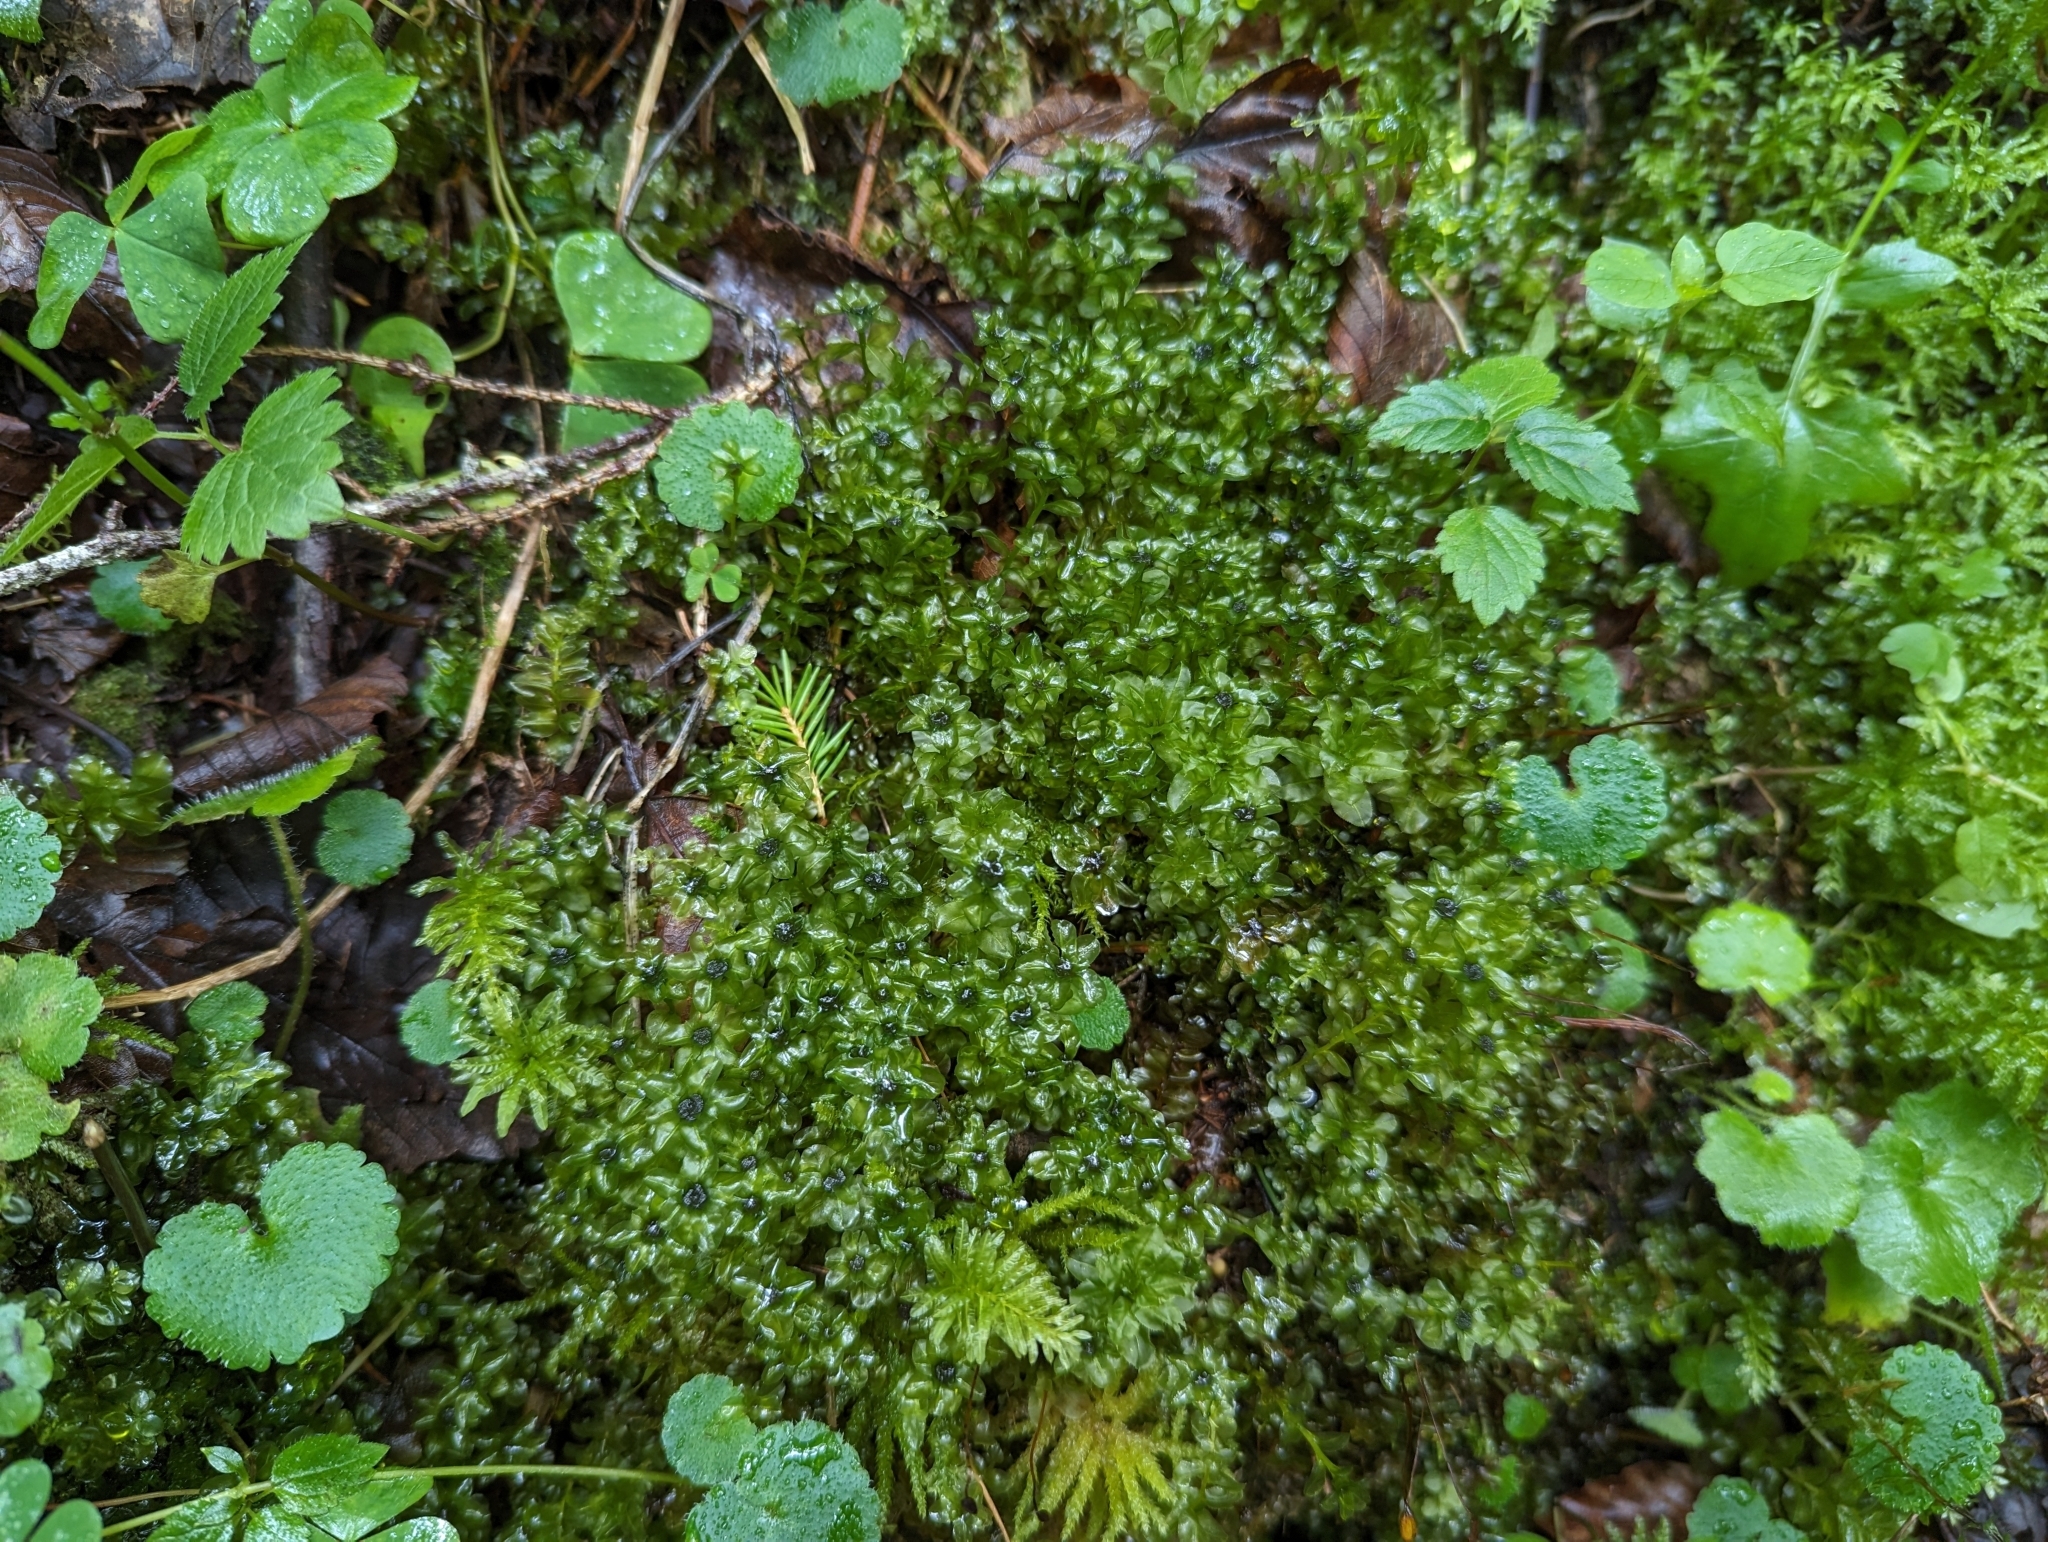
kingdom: Plantae
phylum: Bryophyta
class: Bryopsida
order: Bryales
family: Mniaceae
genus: Rhizomnium
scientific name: Rhizomnium punctatum
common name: Dotted leafy moss
